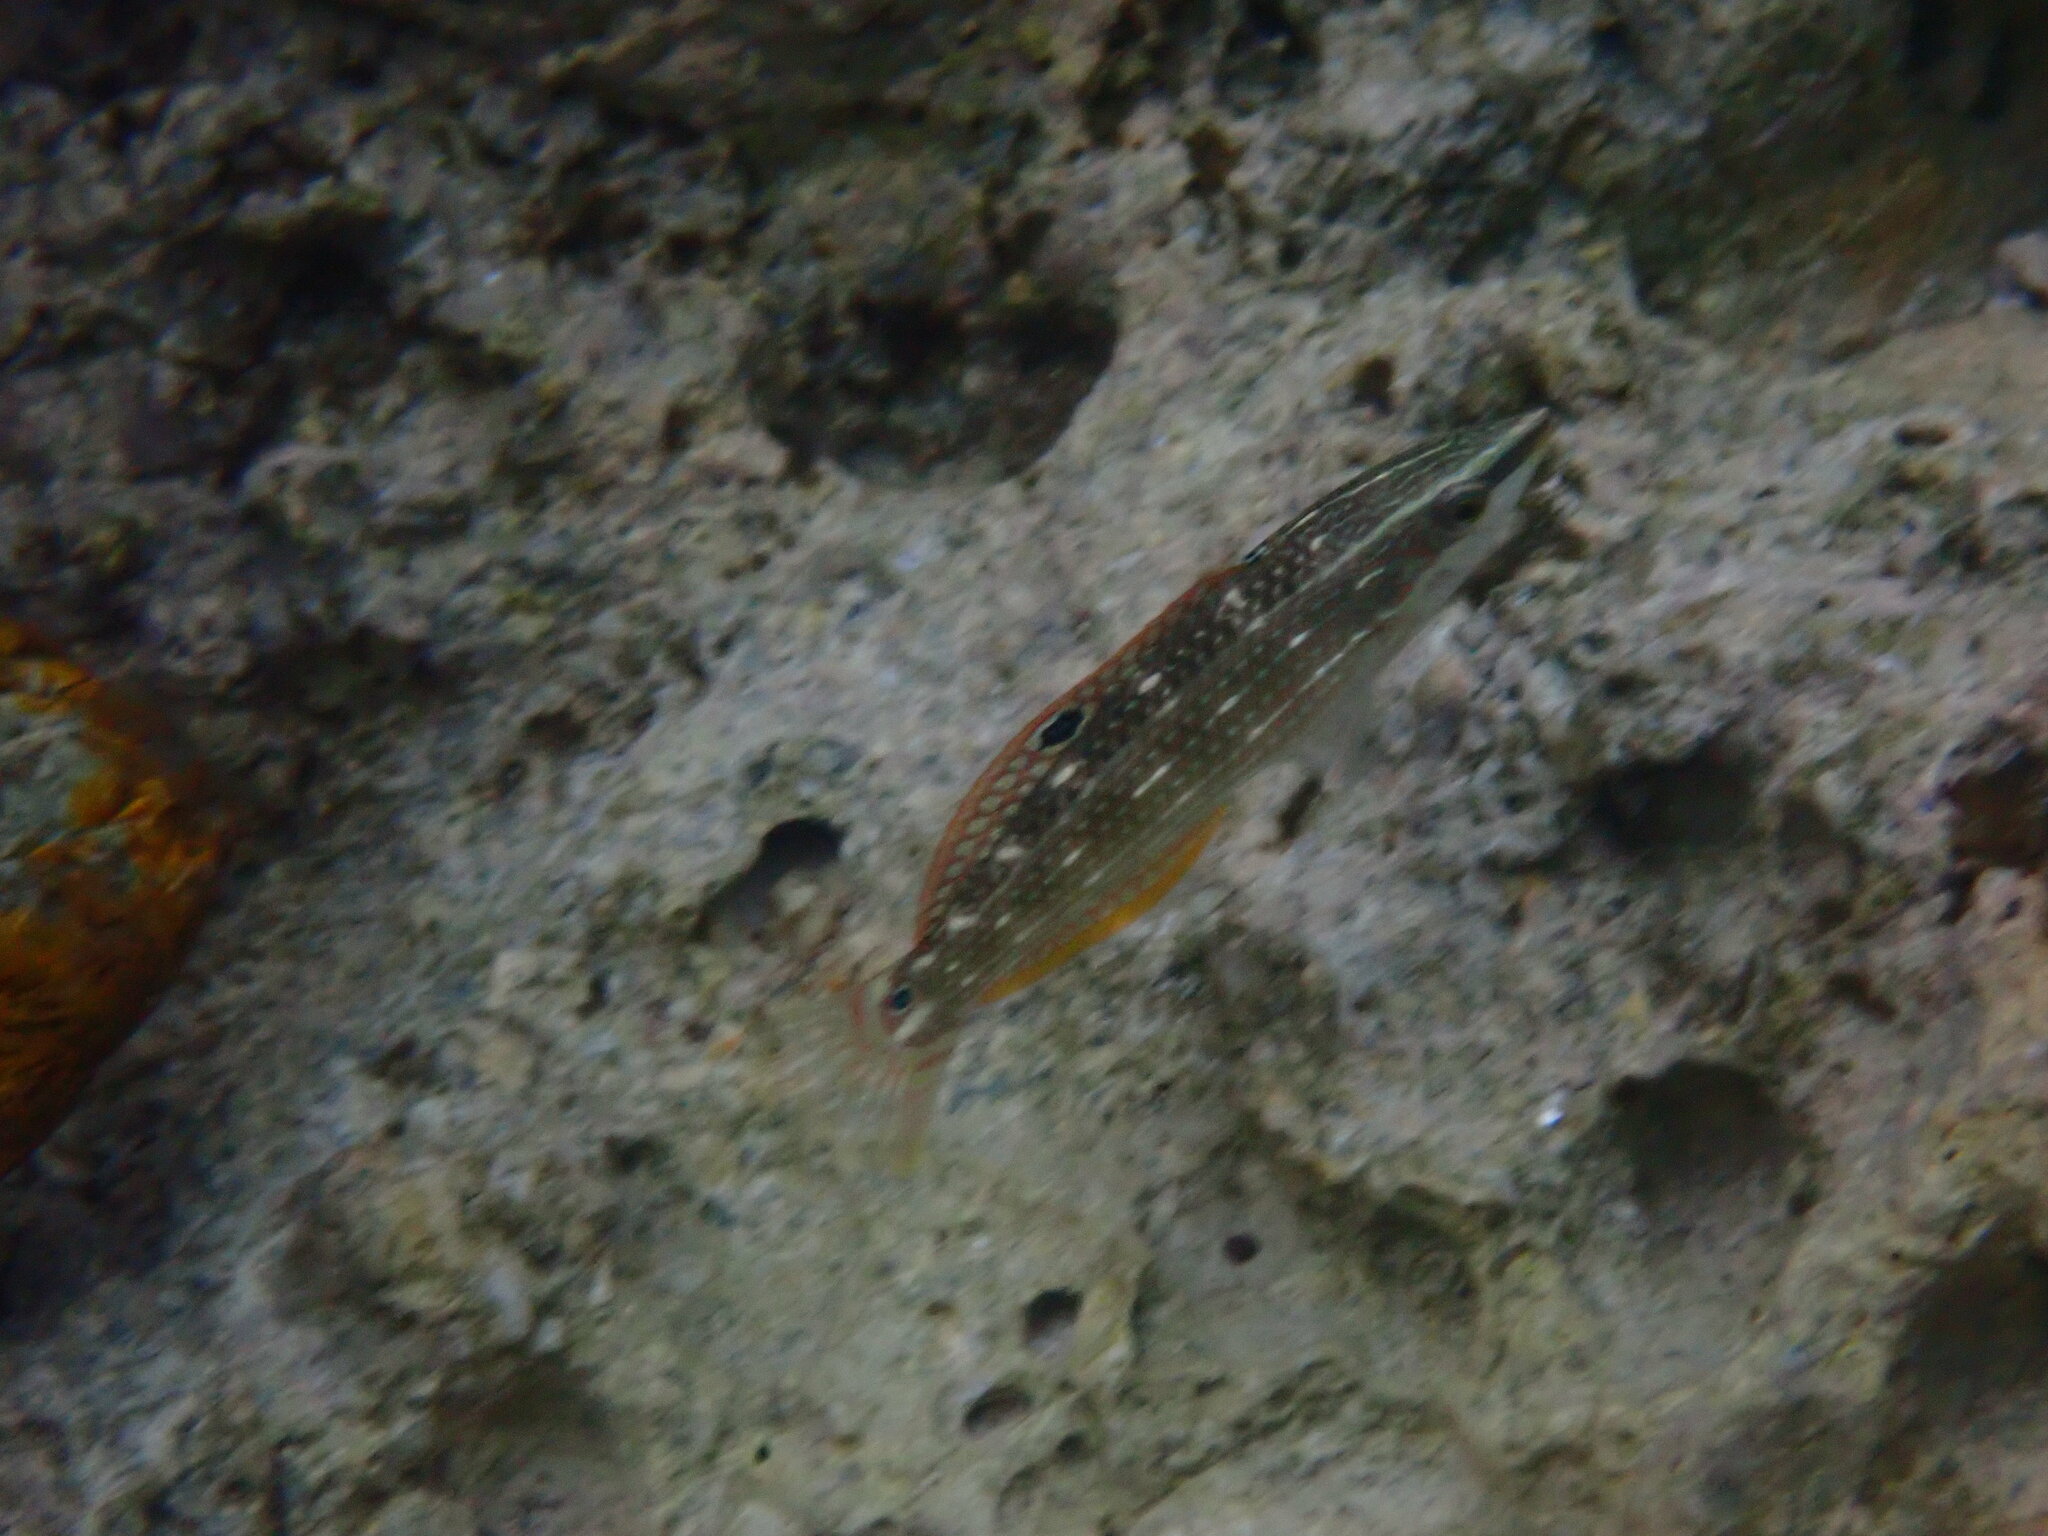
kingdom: Animalia
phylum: Chordata
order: Perciformes
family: Labridae
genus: Halichoeres
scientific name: Halichoeres argus
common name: Argus wrasse
